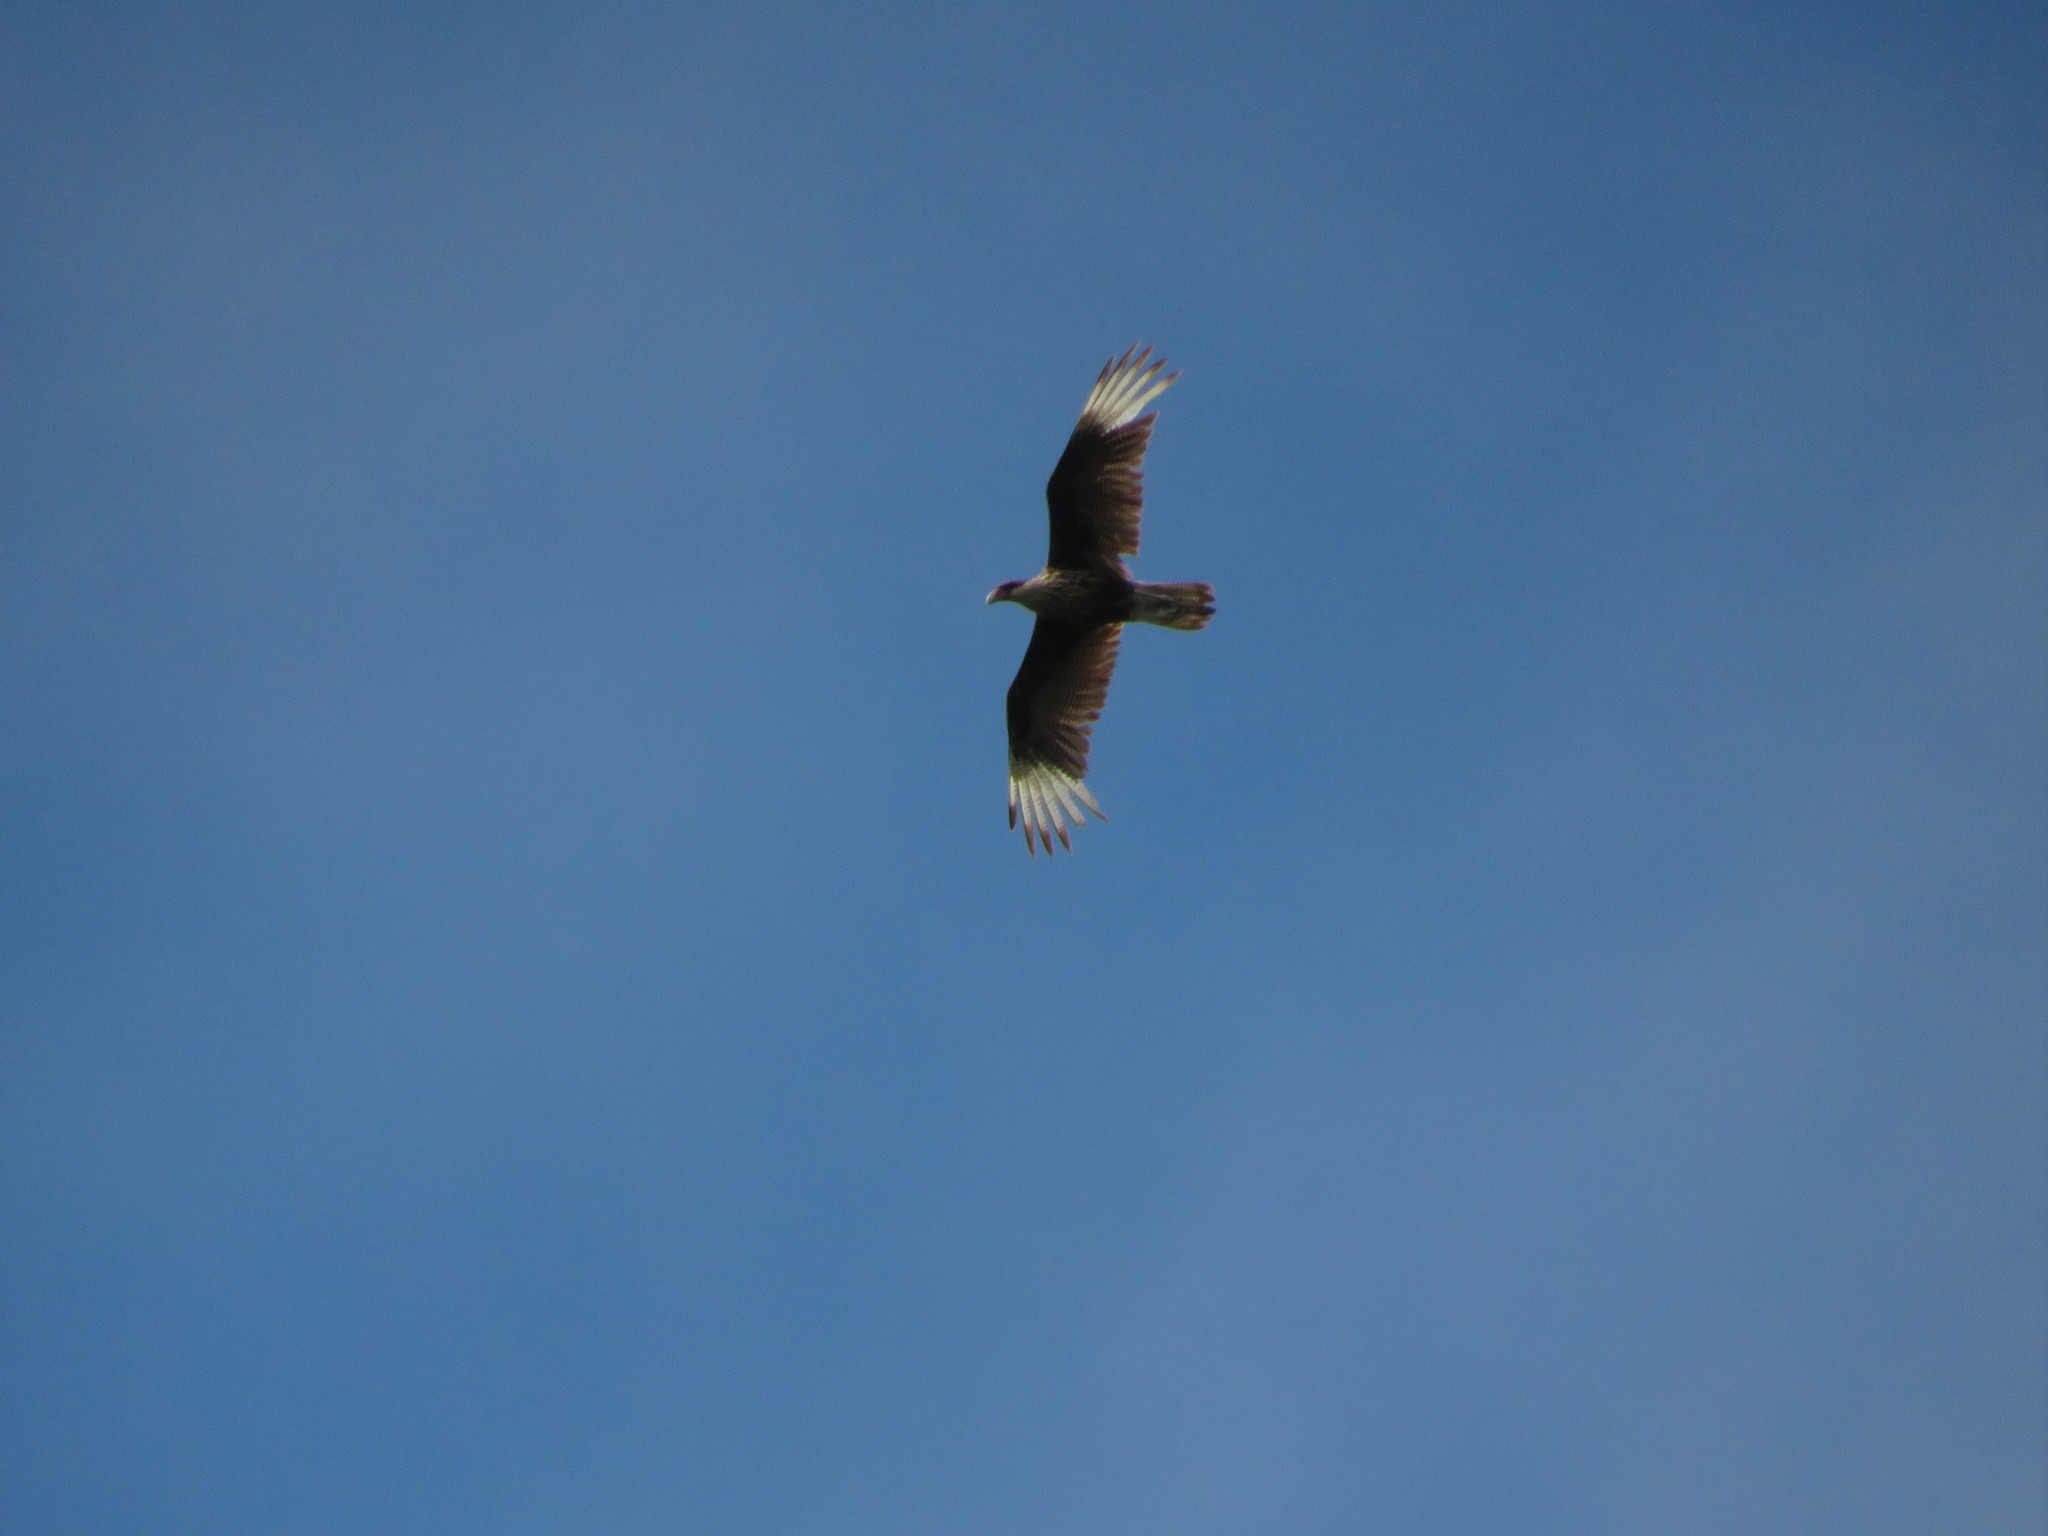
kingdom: Animalia
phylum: Chordata
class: Aves
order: Falconiformes
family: Falconidae
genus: Caracara
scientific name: Caracara plancus
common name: Southern caracara
